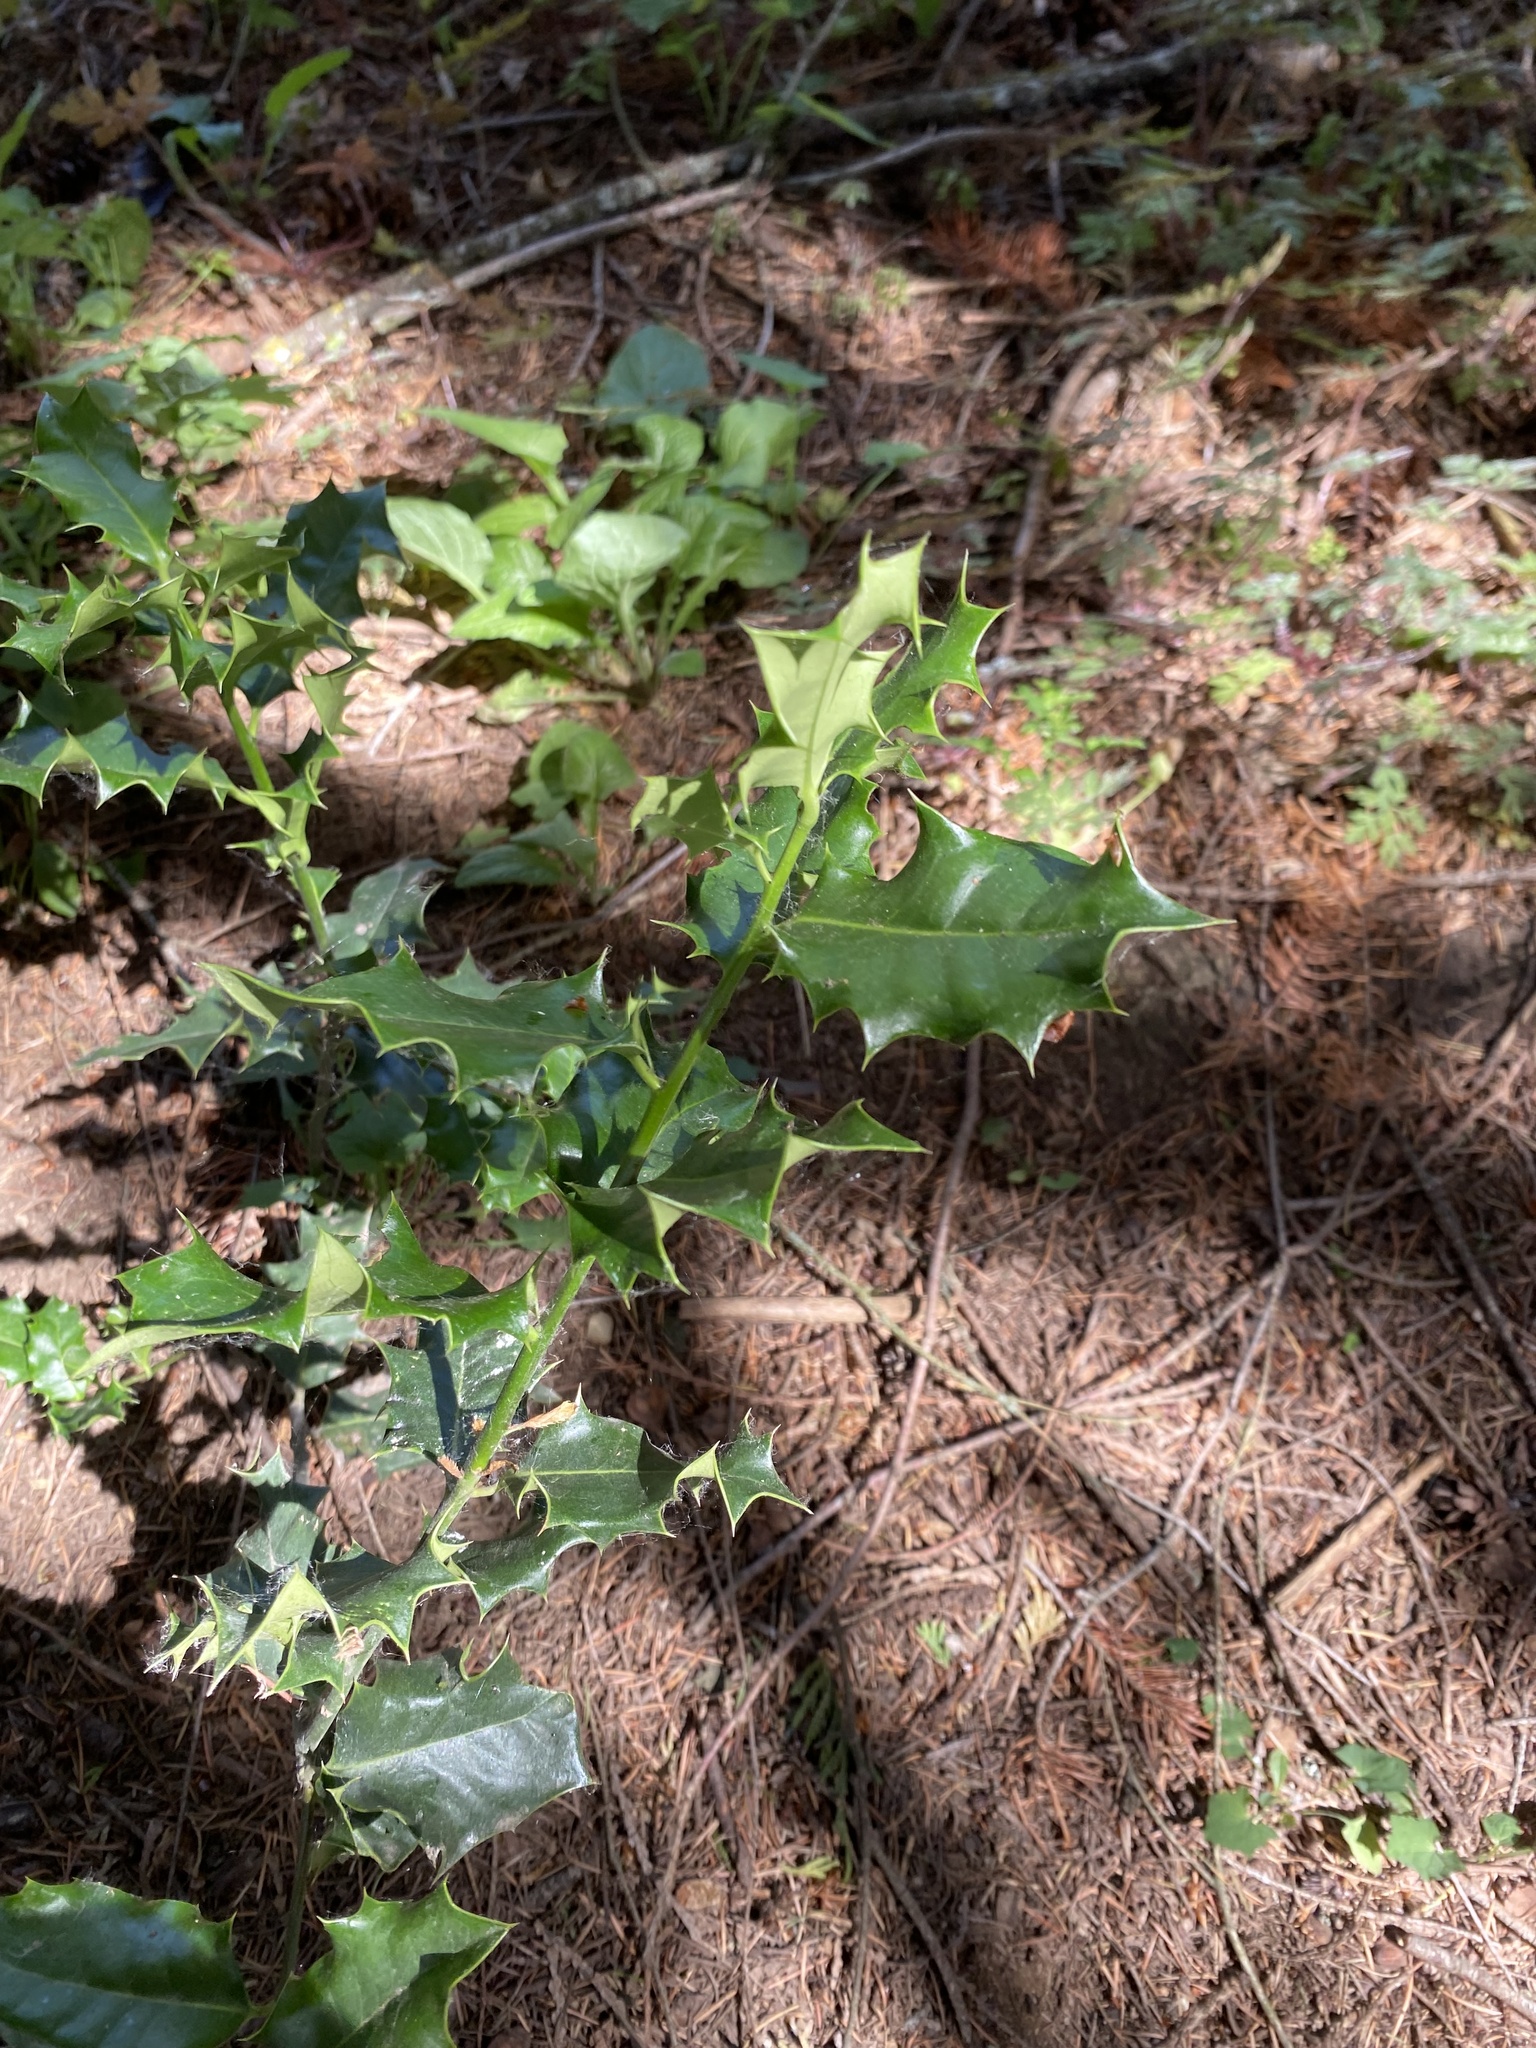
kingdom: Plantae
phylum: Tracheophyta
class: Magnoliopsida
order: Aquifoliales
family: Aquifoliaceae
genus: Ilex
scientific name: Ilex aquifolium
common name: English holly
